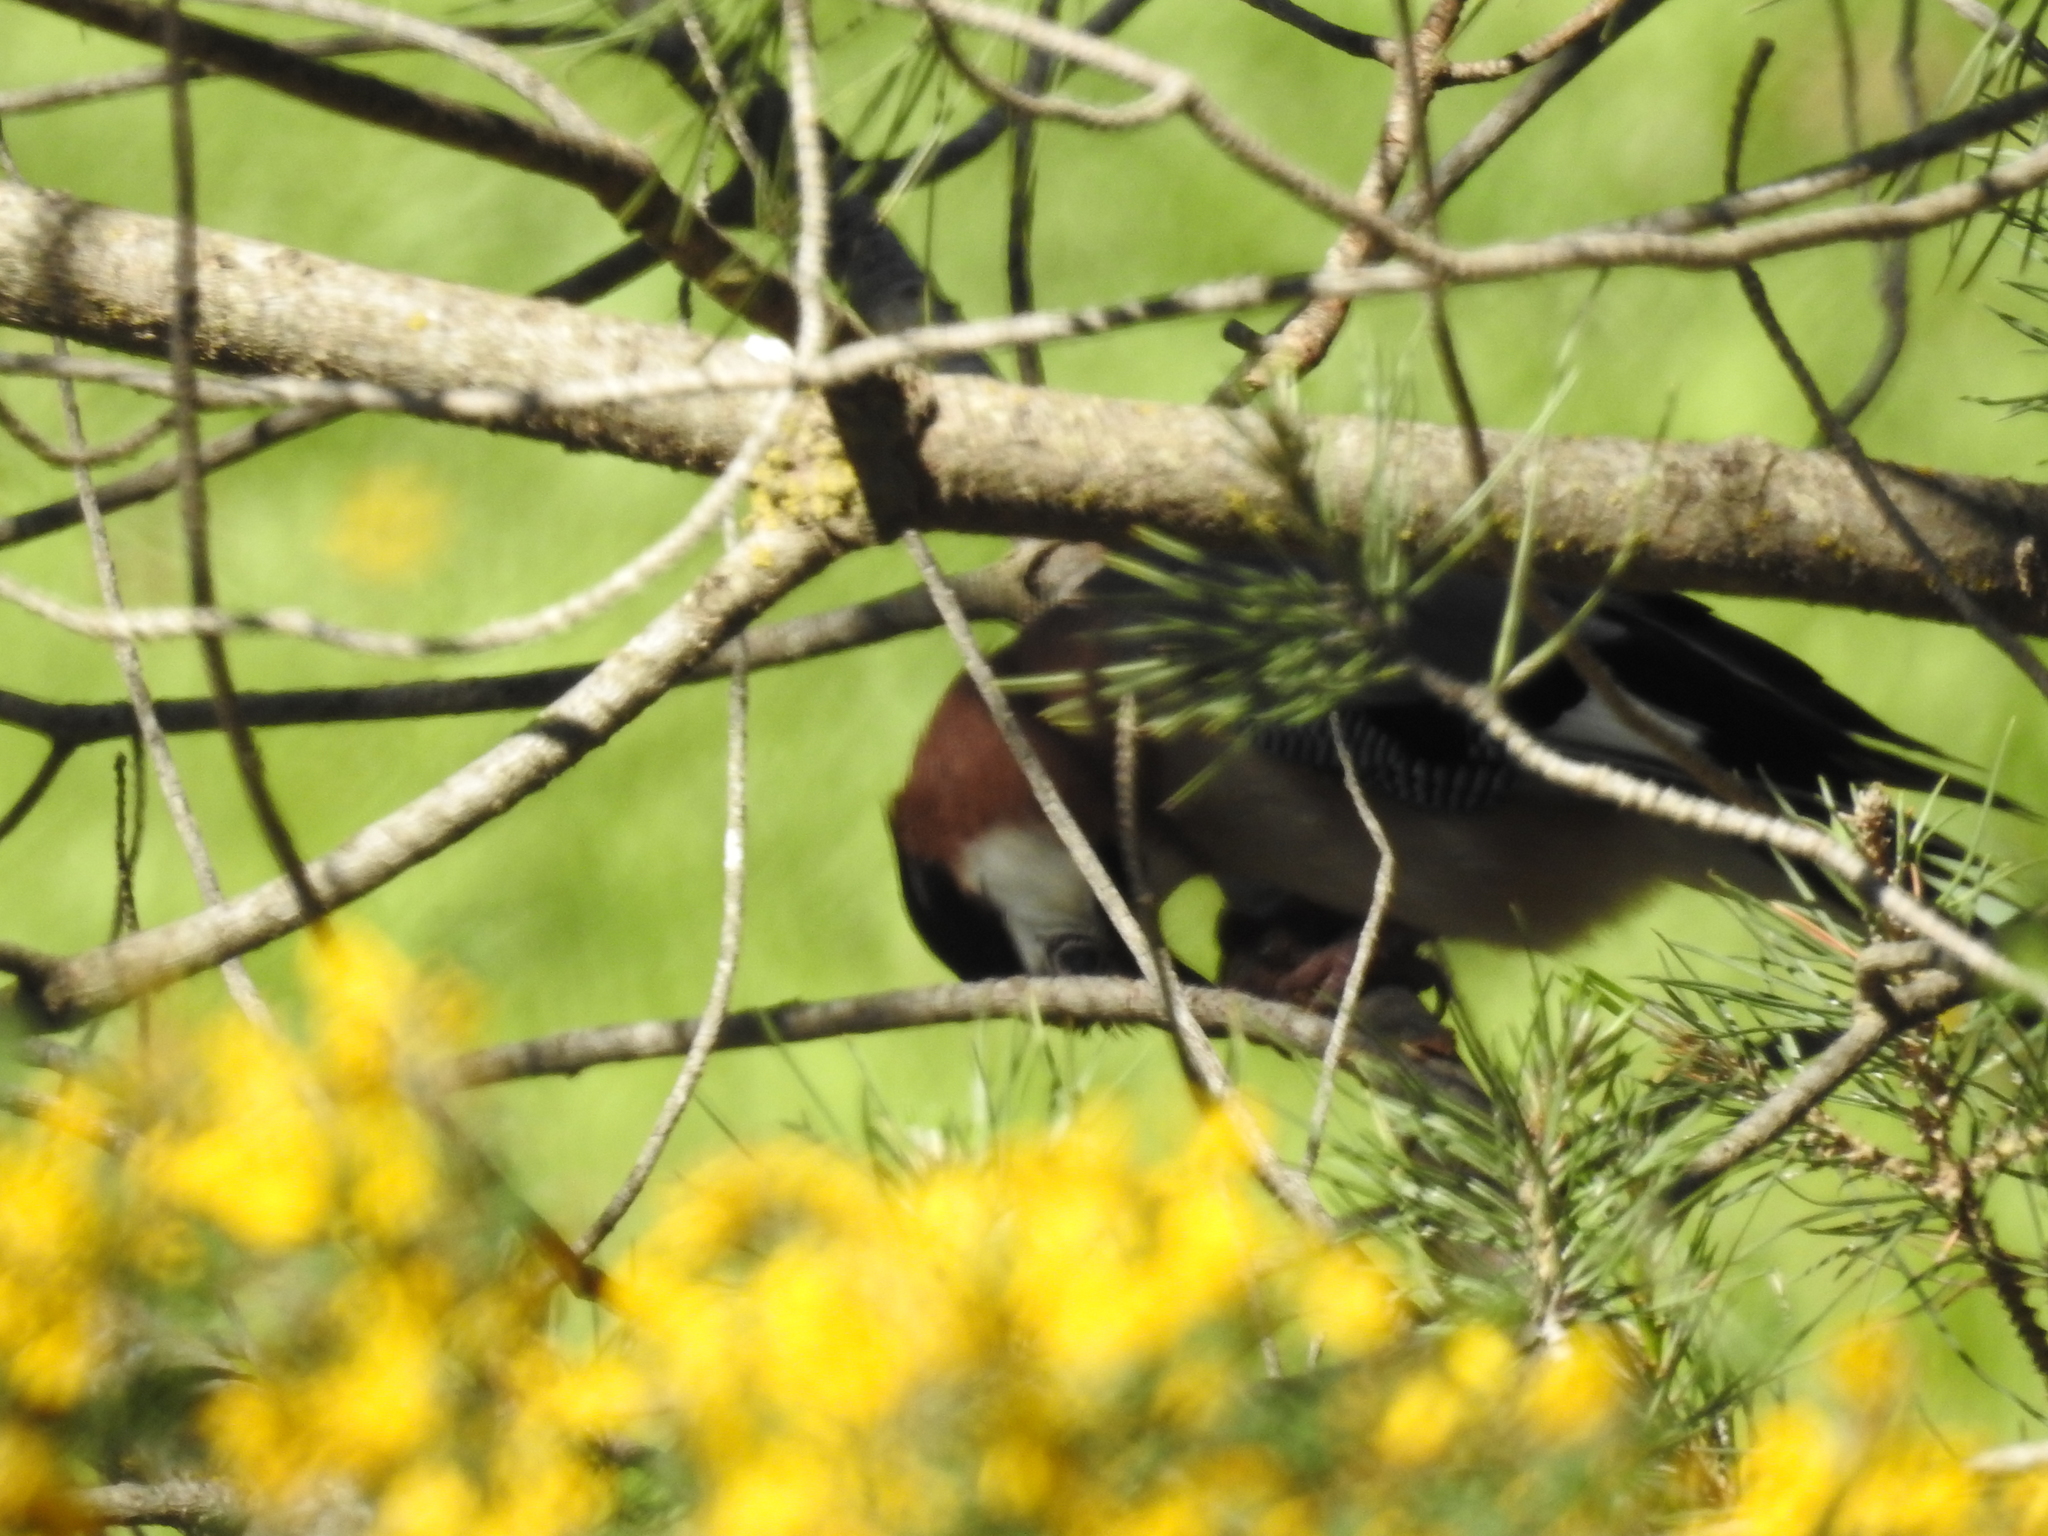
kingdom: Animalia
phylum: Chordata
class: Aves
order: Passeriformes
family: Corvidae
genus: Garrulus
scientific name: Garrulus glandarius
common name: Eurasian jay
